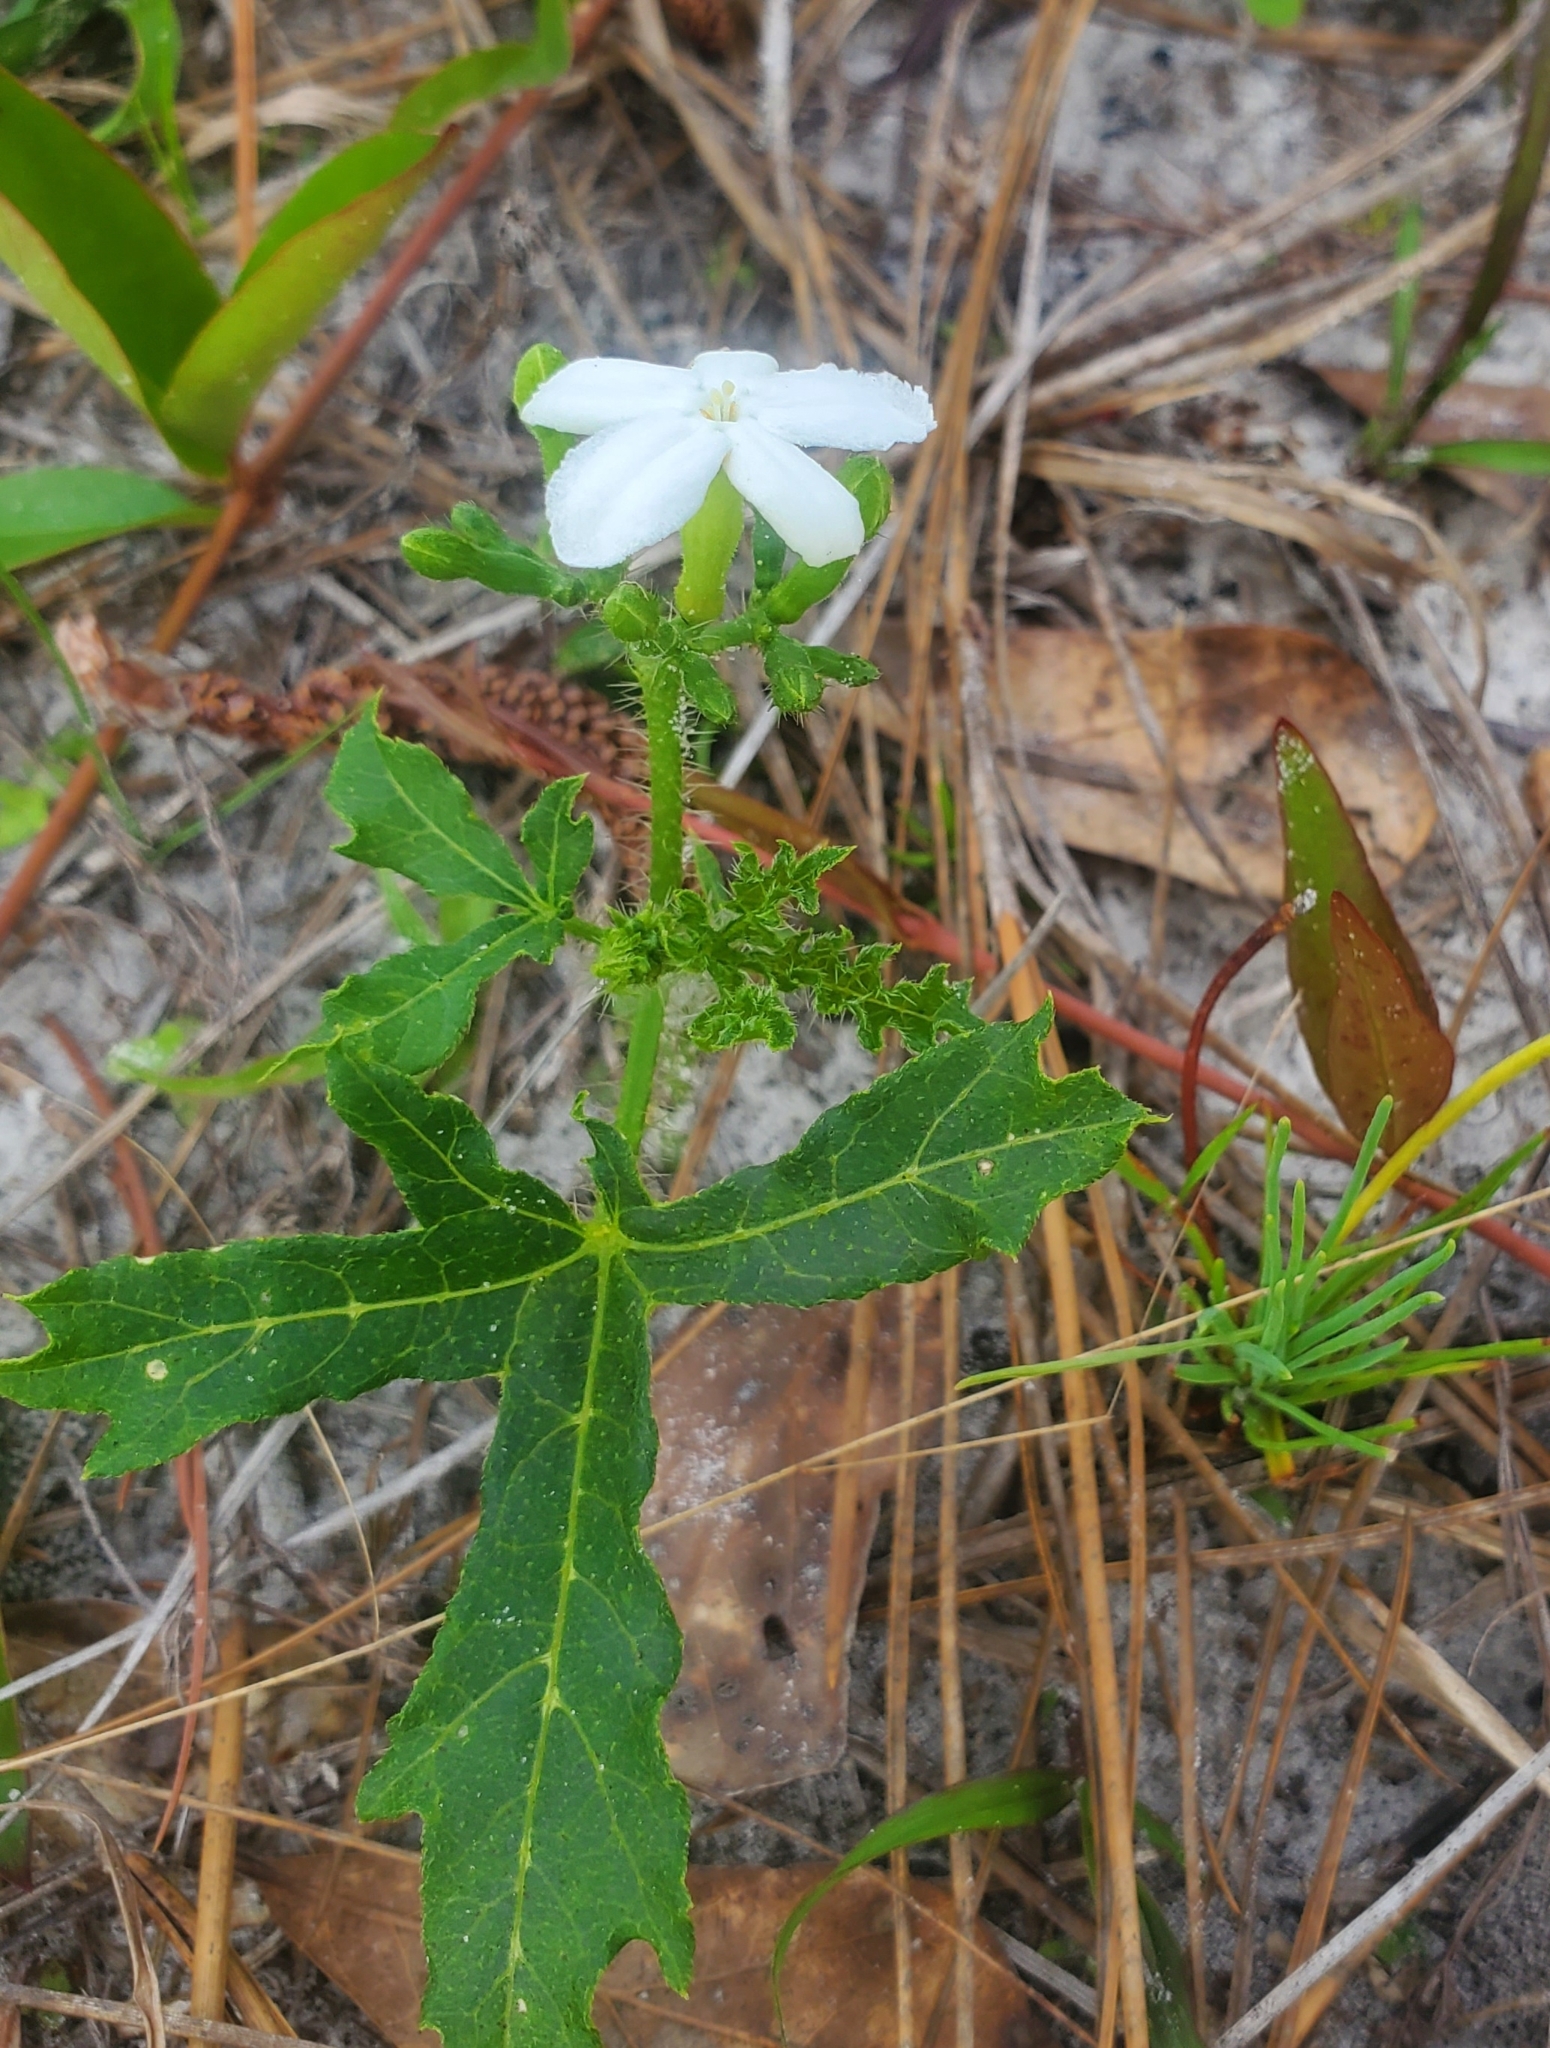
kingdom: Plantae
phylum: Tracheophyta
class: Magnoliopsida
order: Malpighiales
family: Euphorbiaceae
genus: Cnidoscolus
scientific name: Cnidoscolus stimulosus
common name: Bull-nettle
